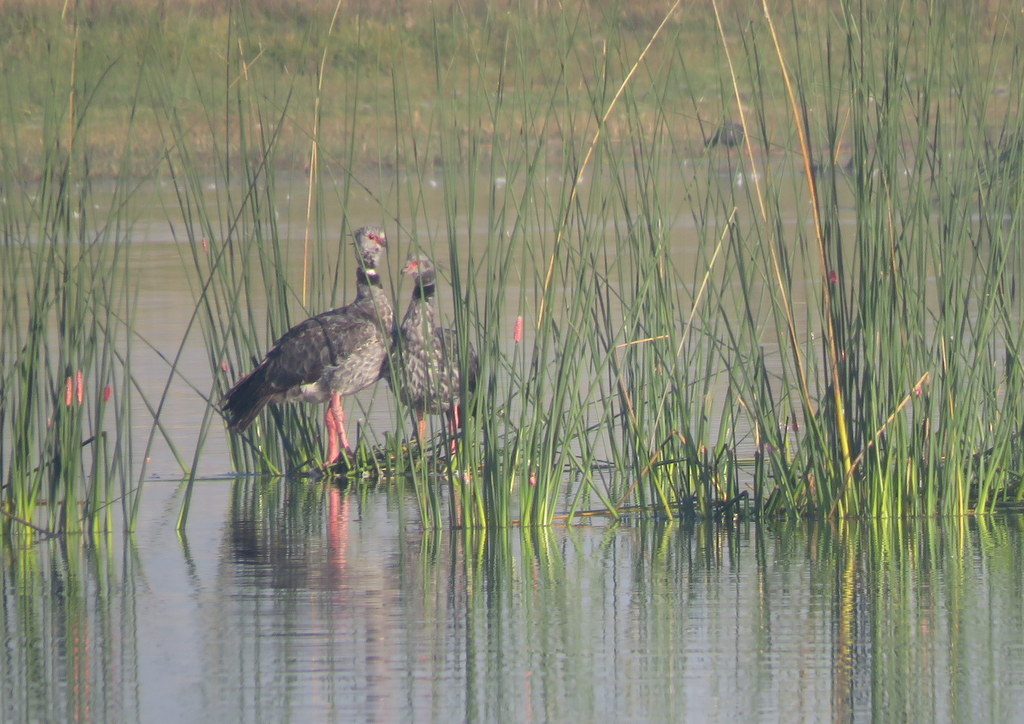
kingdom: Animalia
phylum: Chordata
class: Aves
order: Anseriformes
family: Anhimidae
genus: Chauna
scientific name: Chauna torquata
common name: Southern screamer
